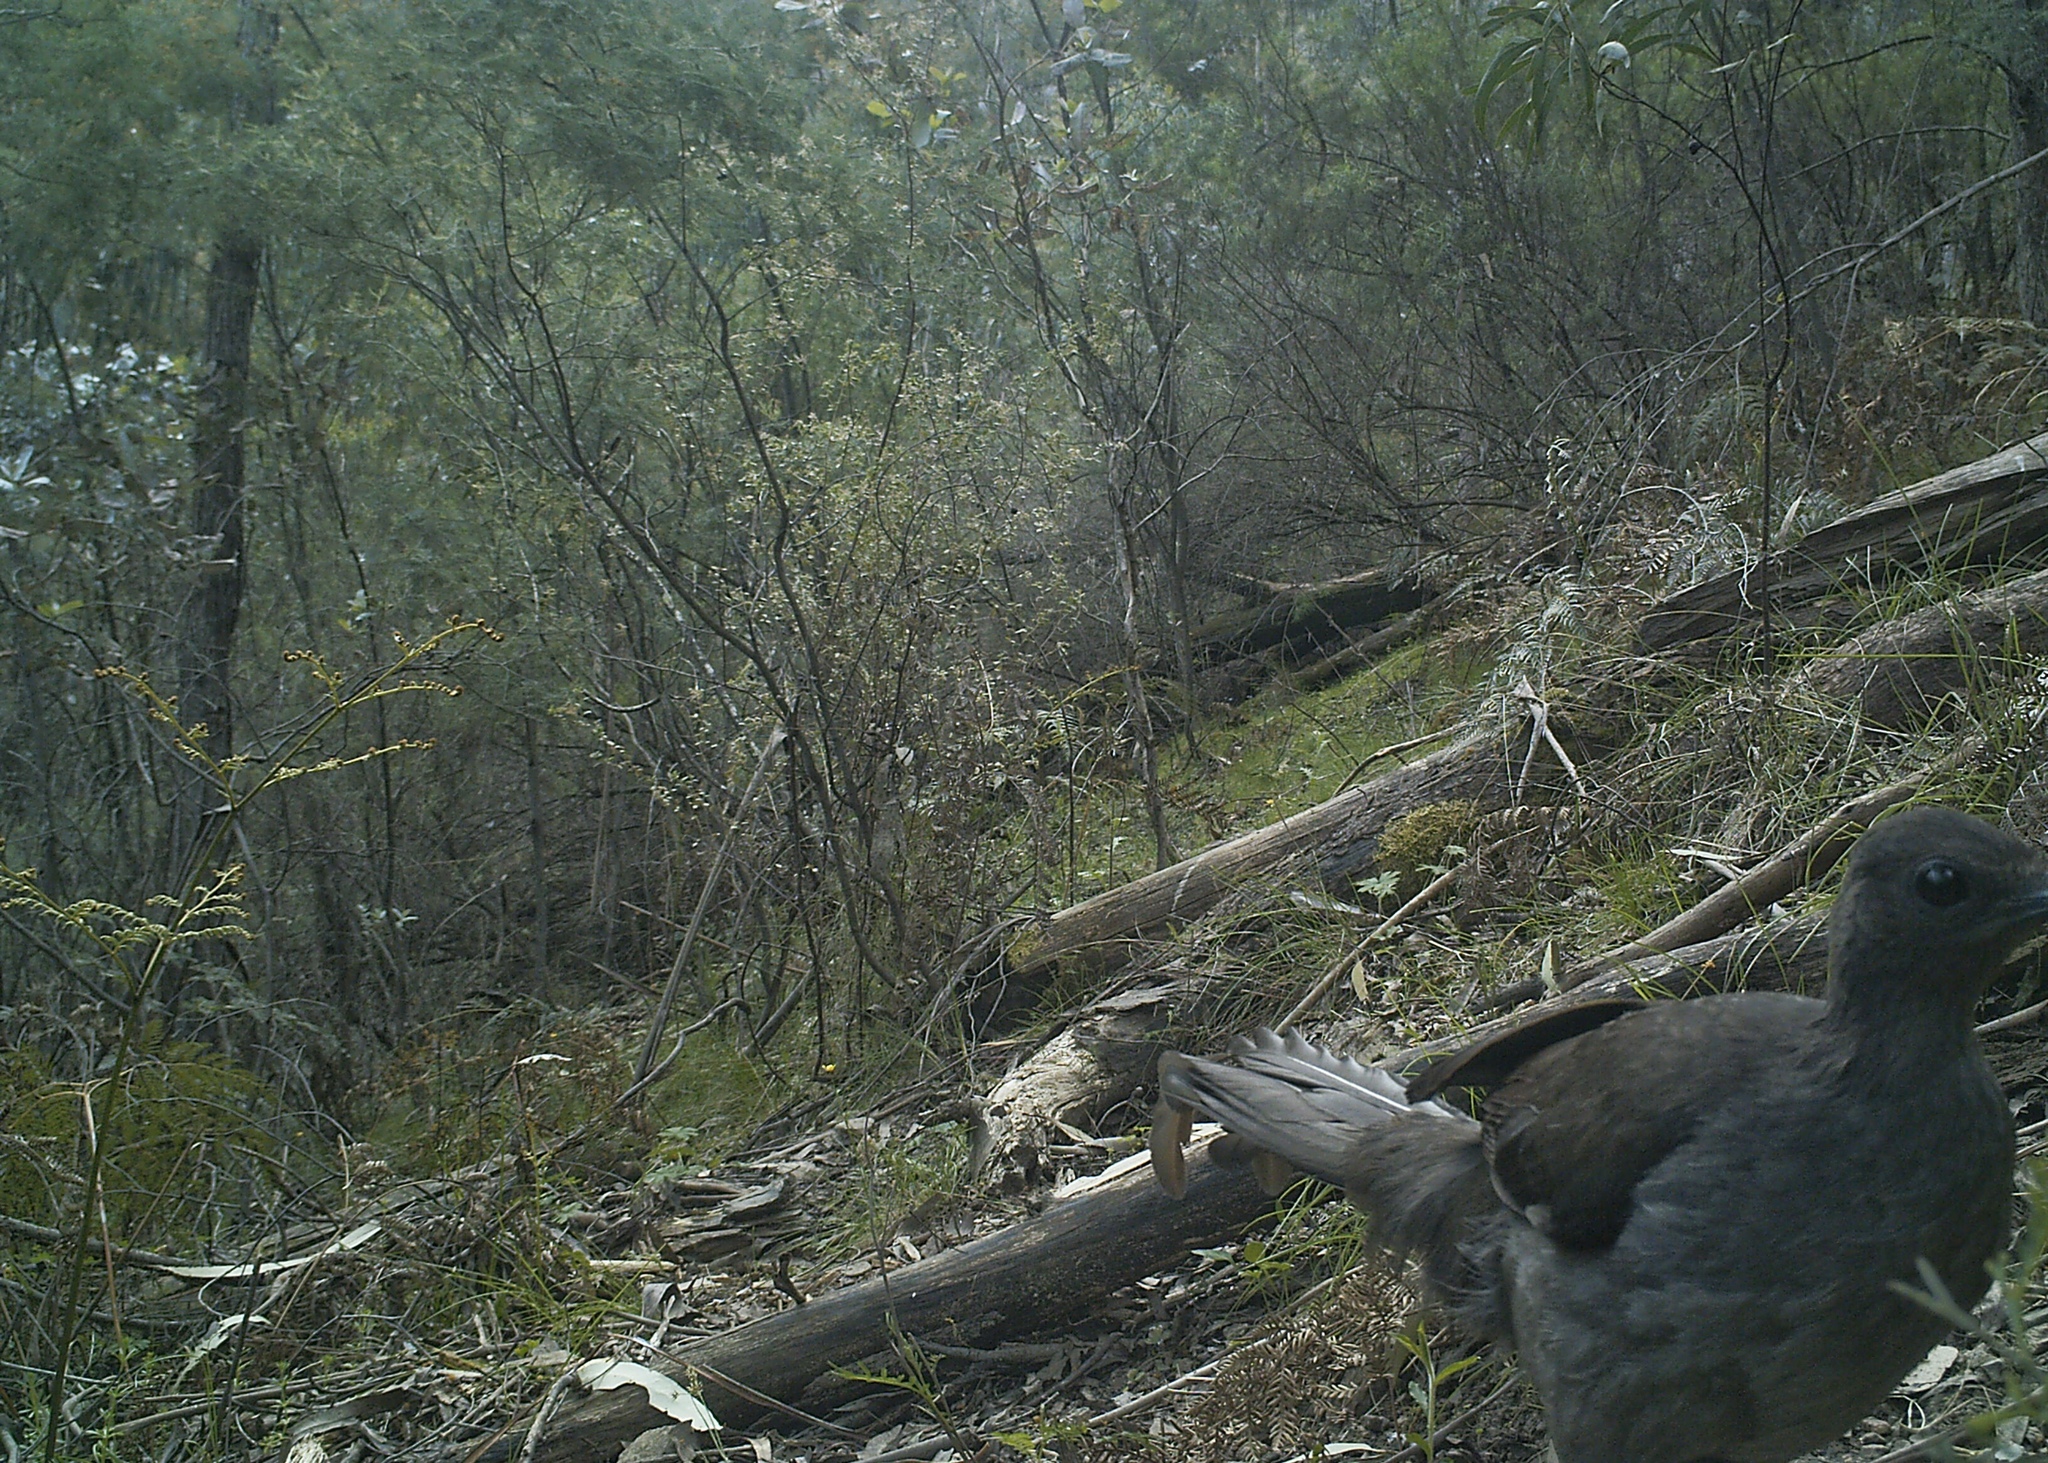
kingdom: Animalia
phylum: Chordata
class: Aves
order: Passeriformes
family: Menuridae
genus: Menura
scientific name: Menura novaehollandiae
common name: Superb lyrebird
